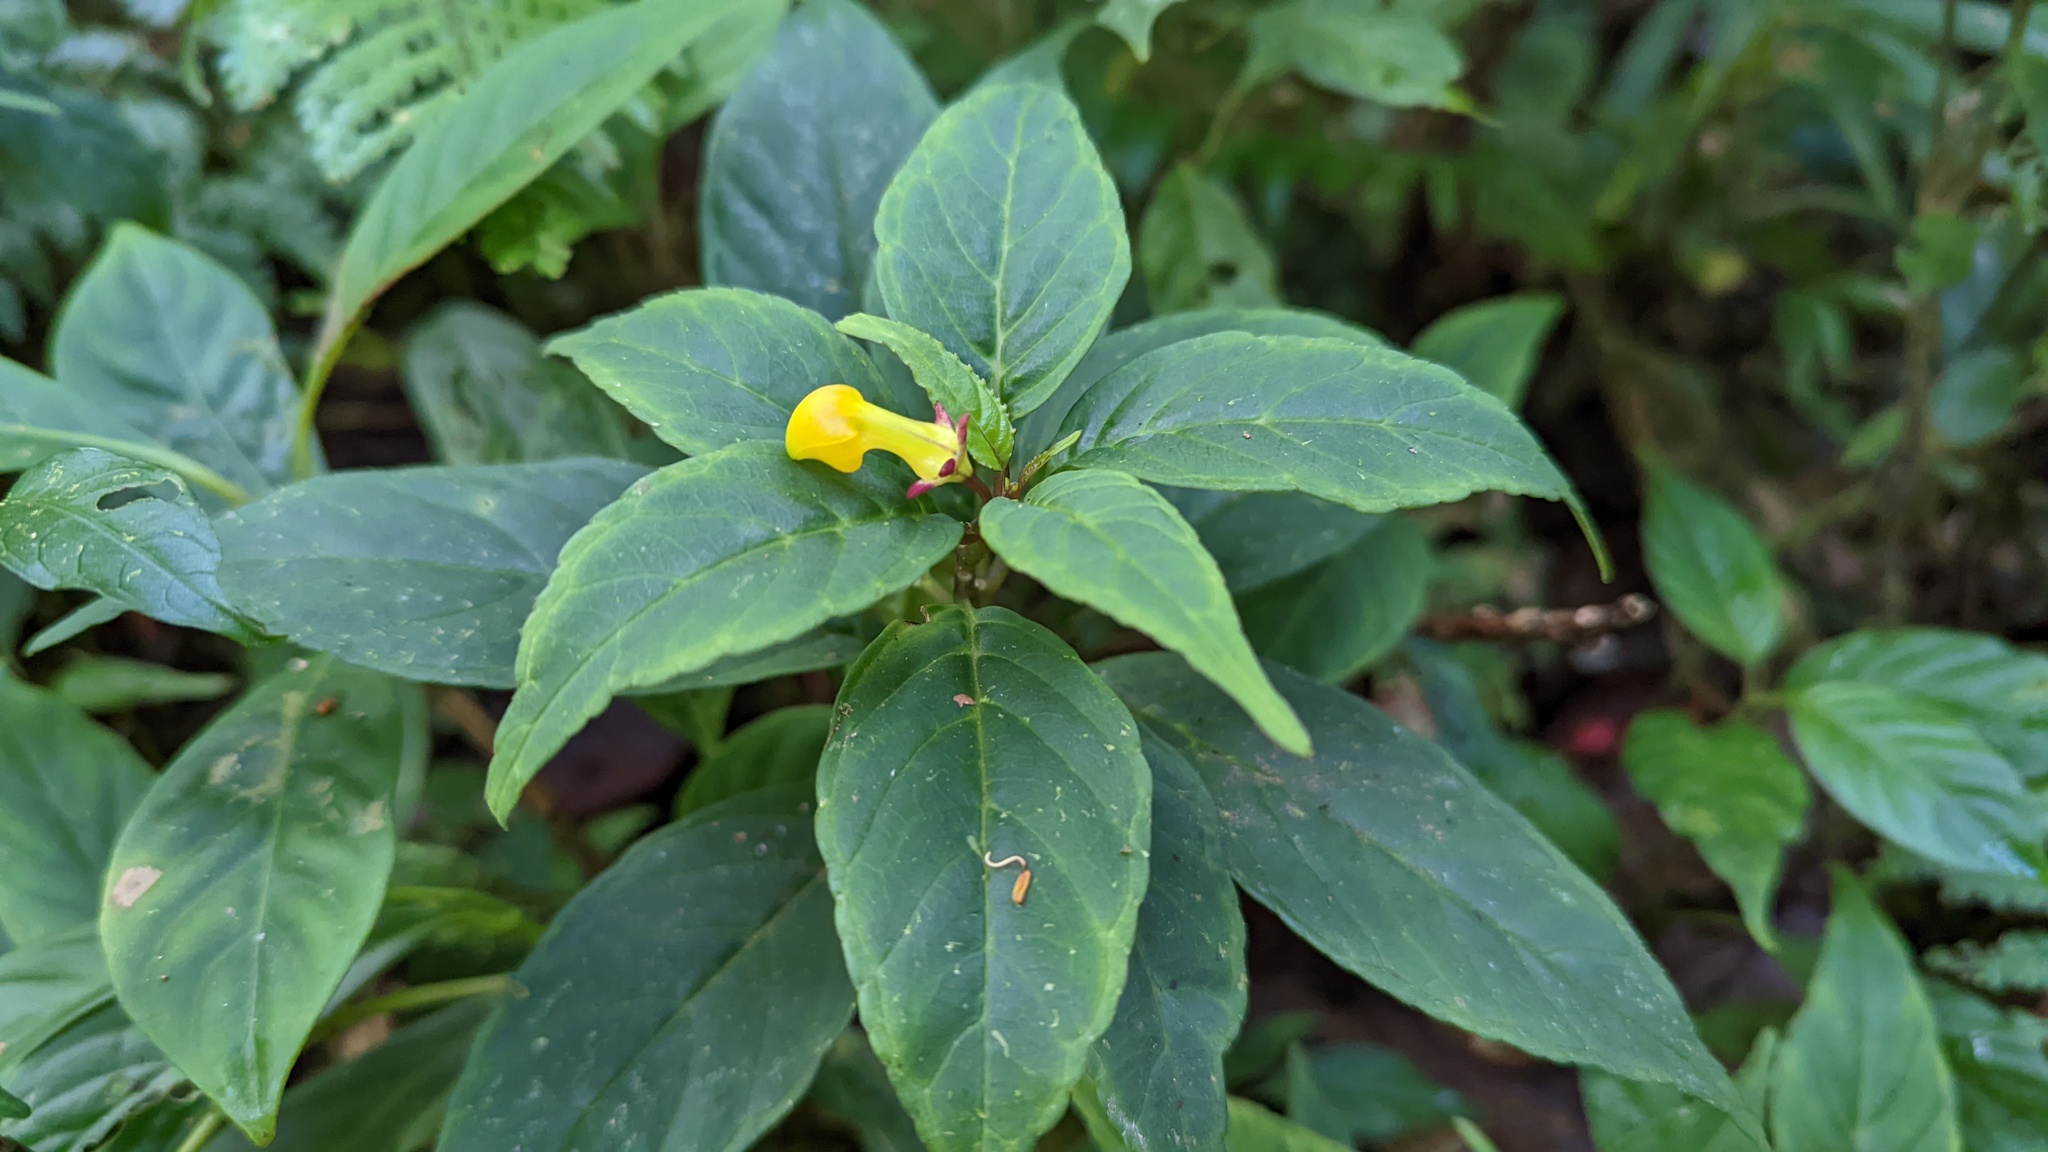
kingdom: Plantae
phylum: Tracheophyta
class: Magnoliopsida
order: Asterales
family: Campanulaceae
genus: Burmeistera
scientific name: Burmeistera parviflora
